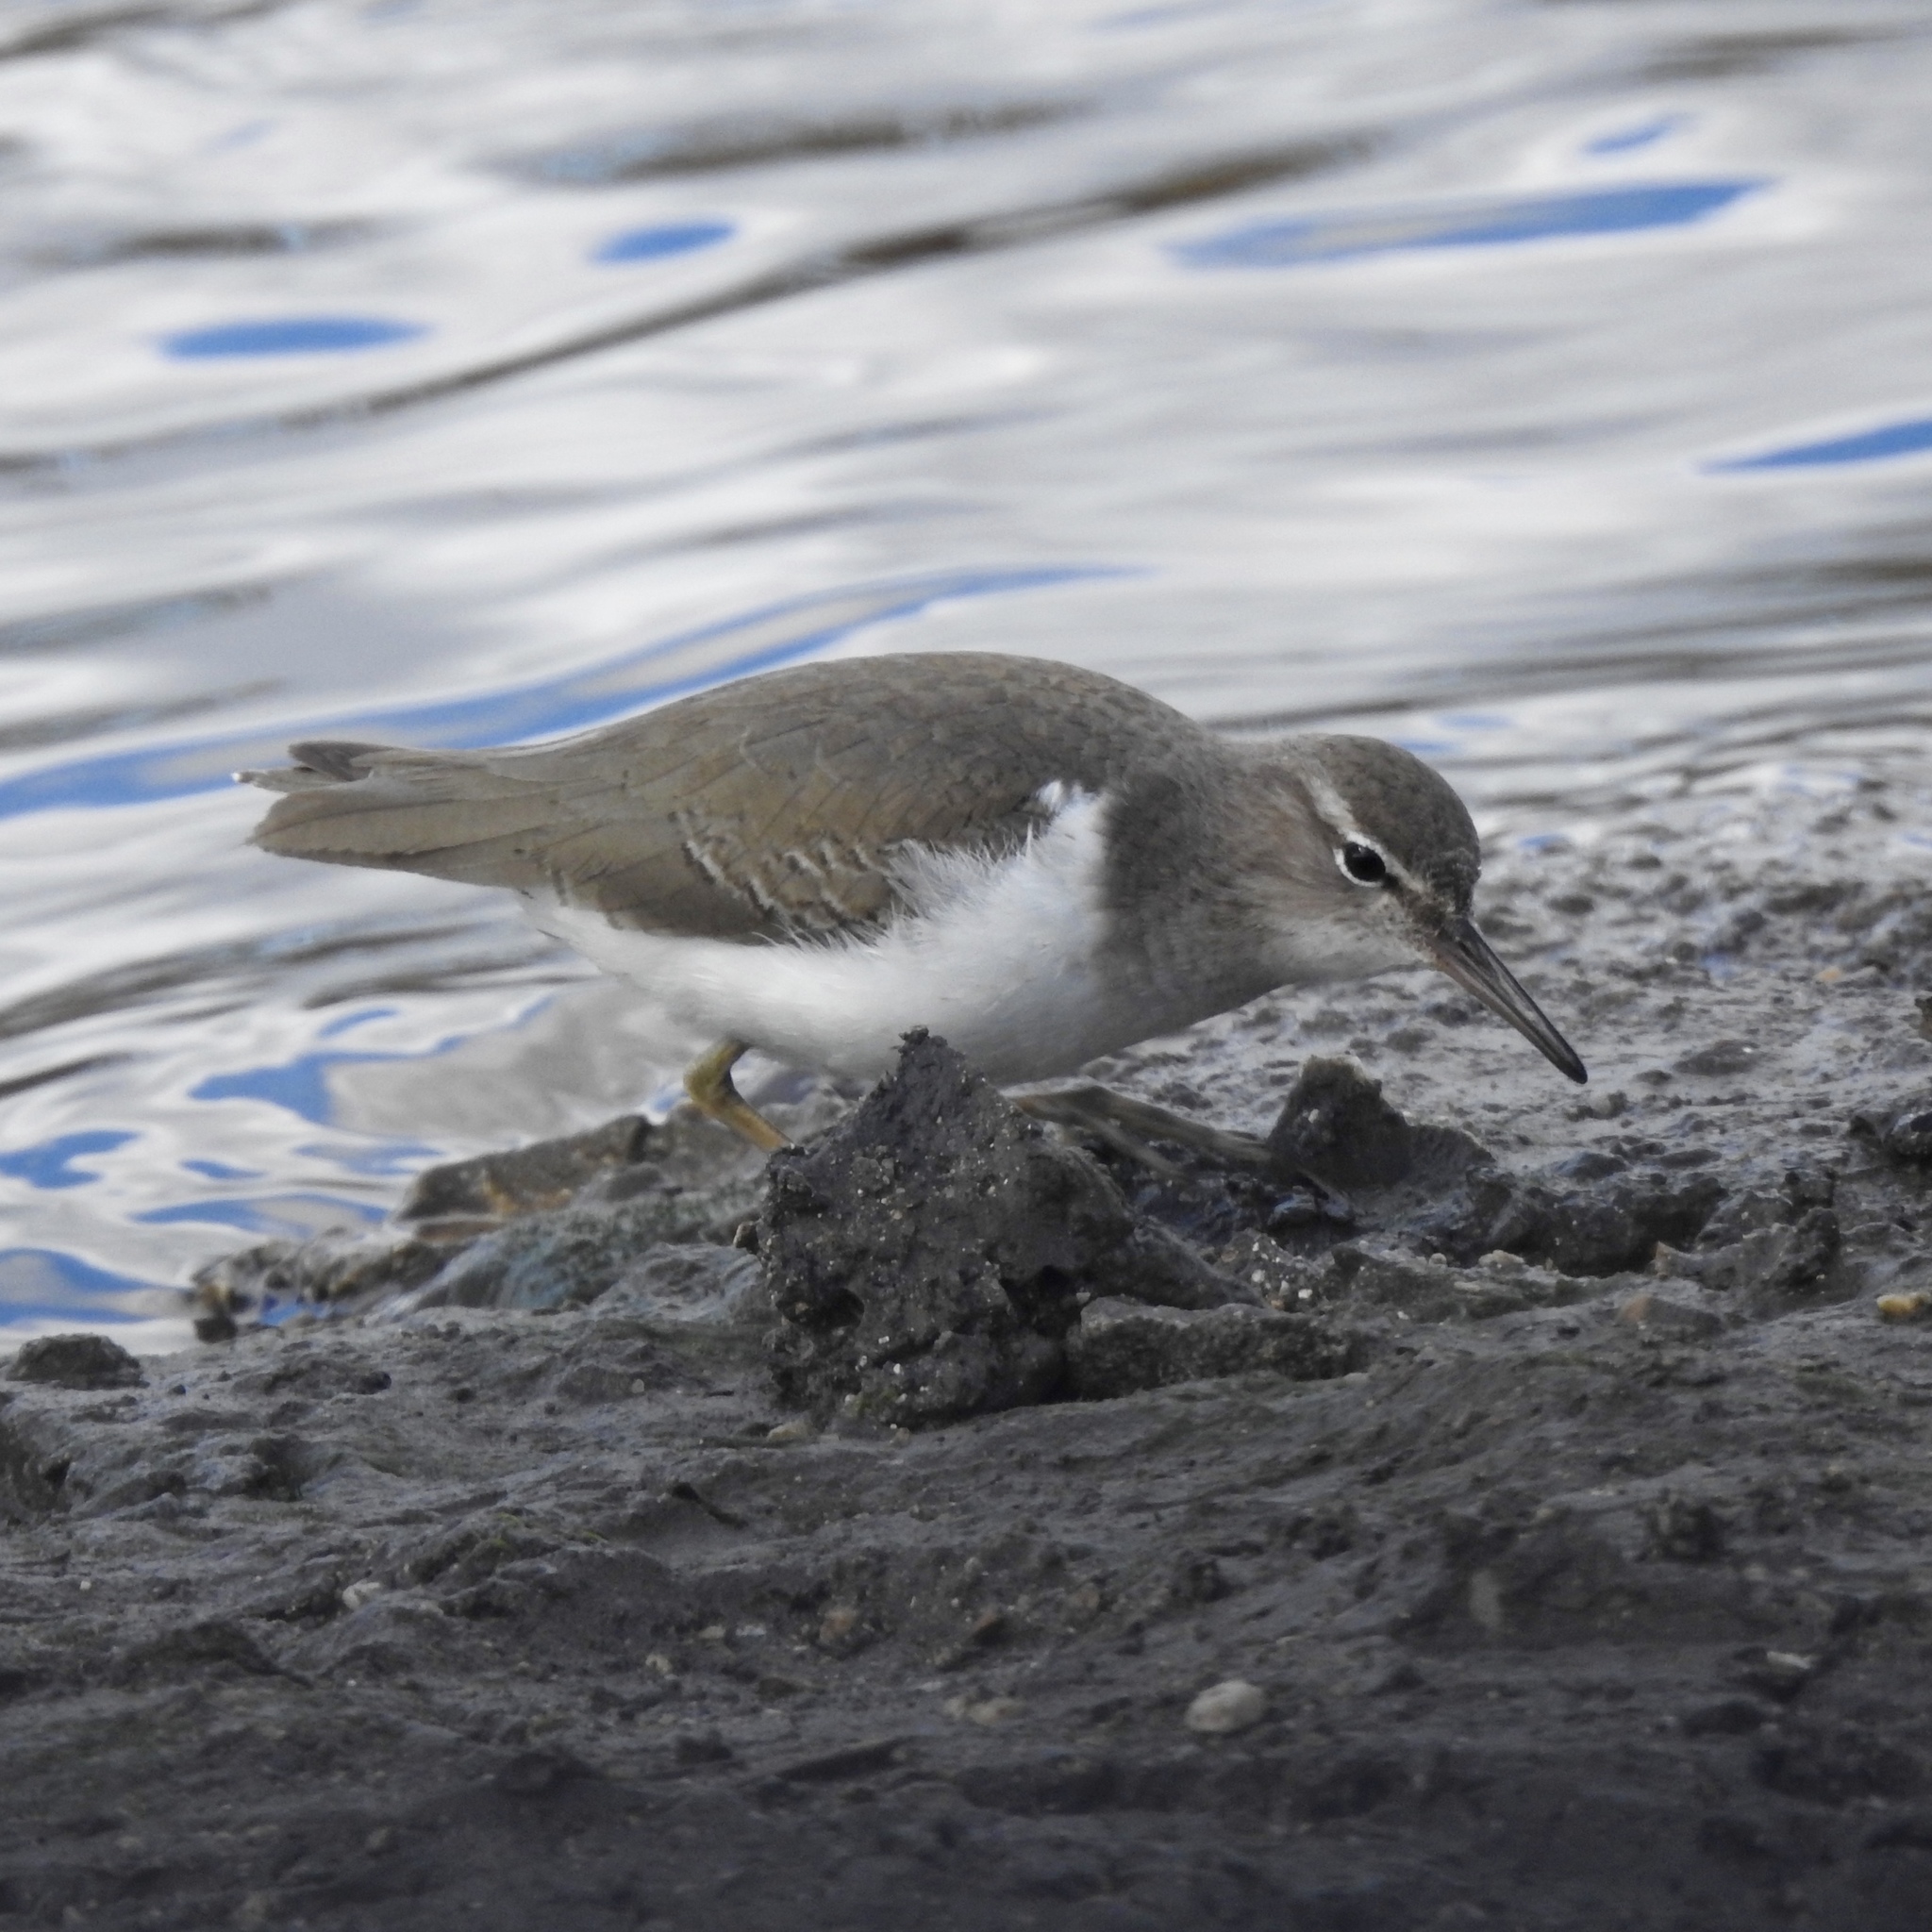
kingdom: Animalia
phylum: Chordata
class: Aves
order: Charadriiformes
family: Scolopacidae
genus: Actitis
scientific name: Actitis macularius
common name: Spotted sandpiper
